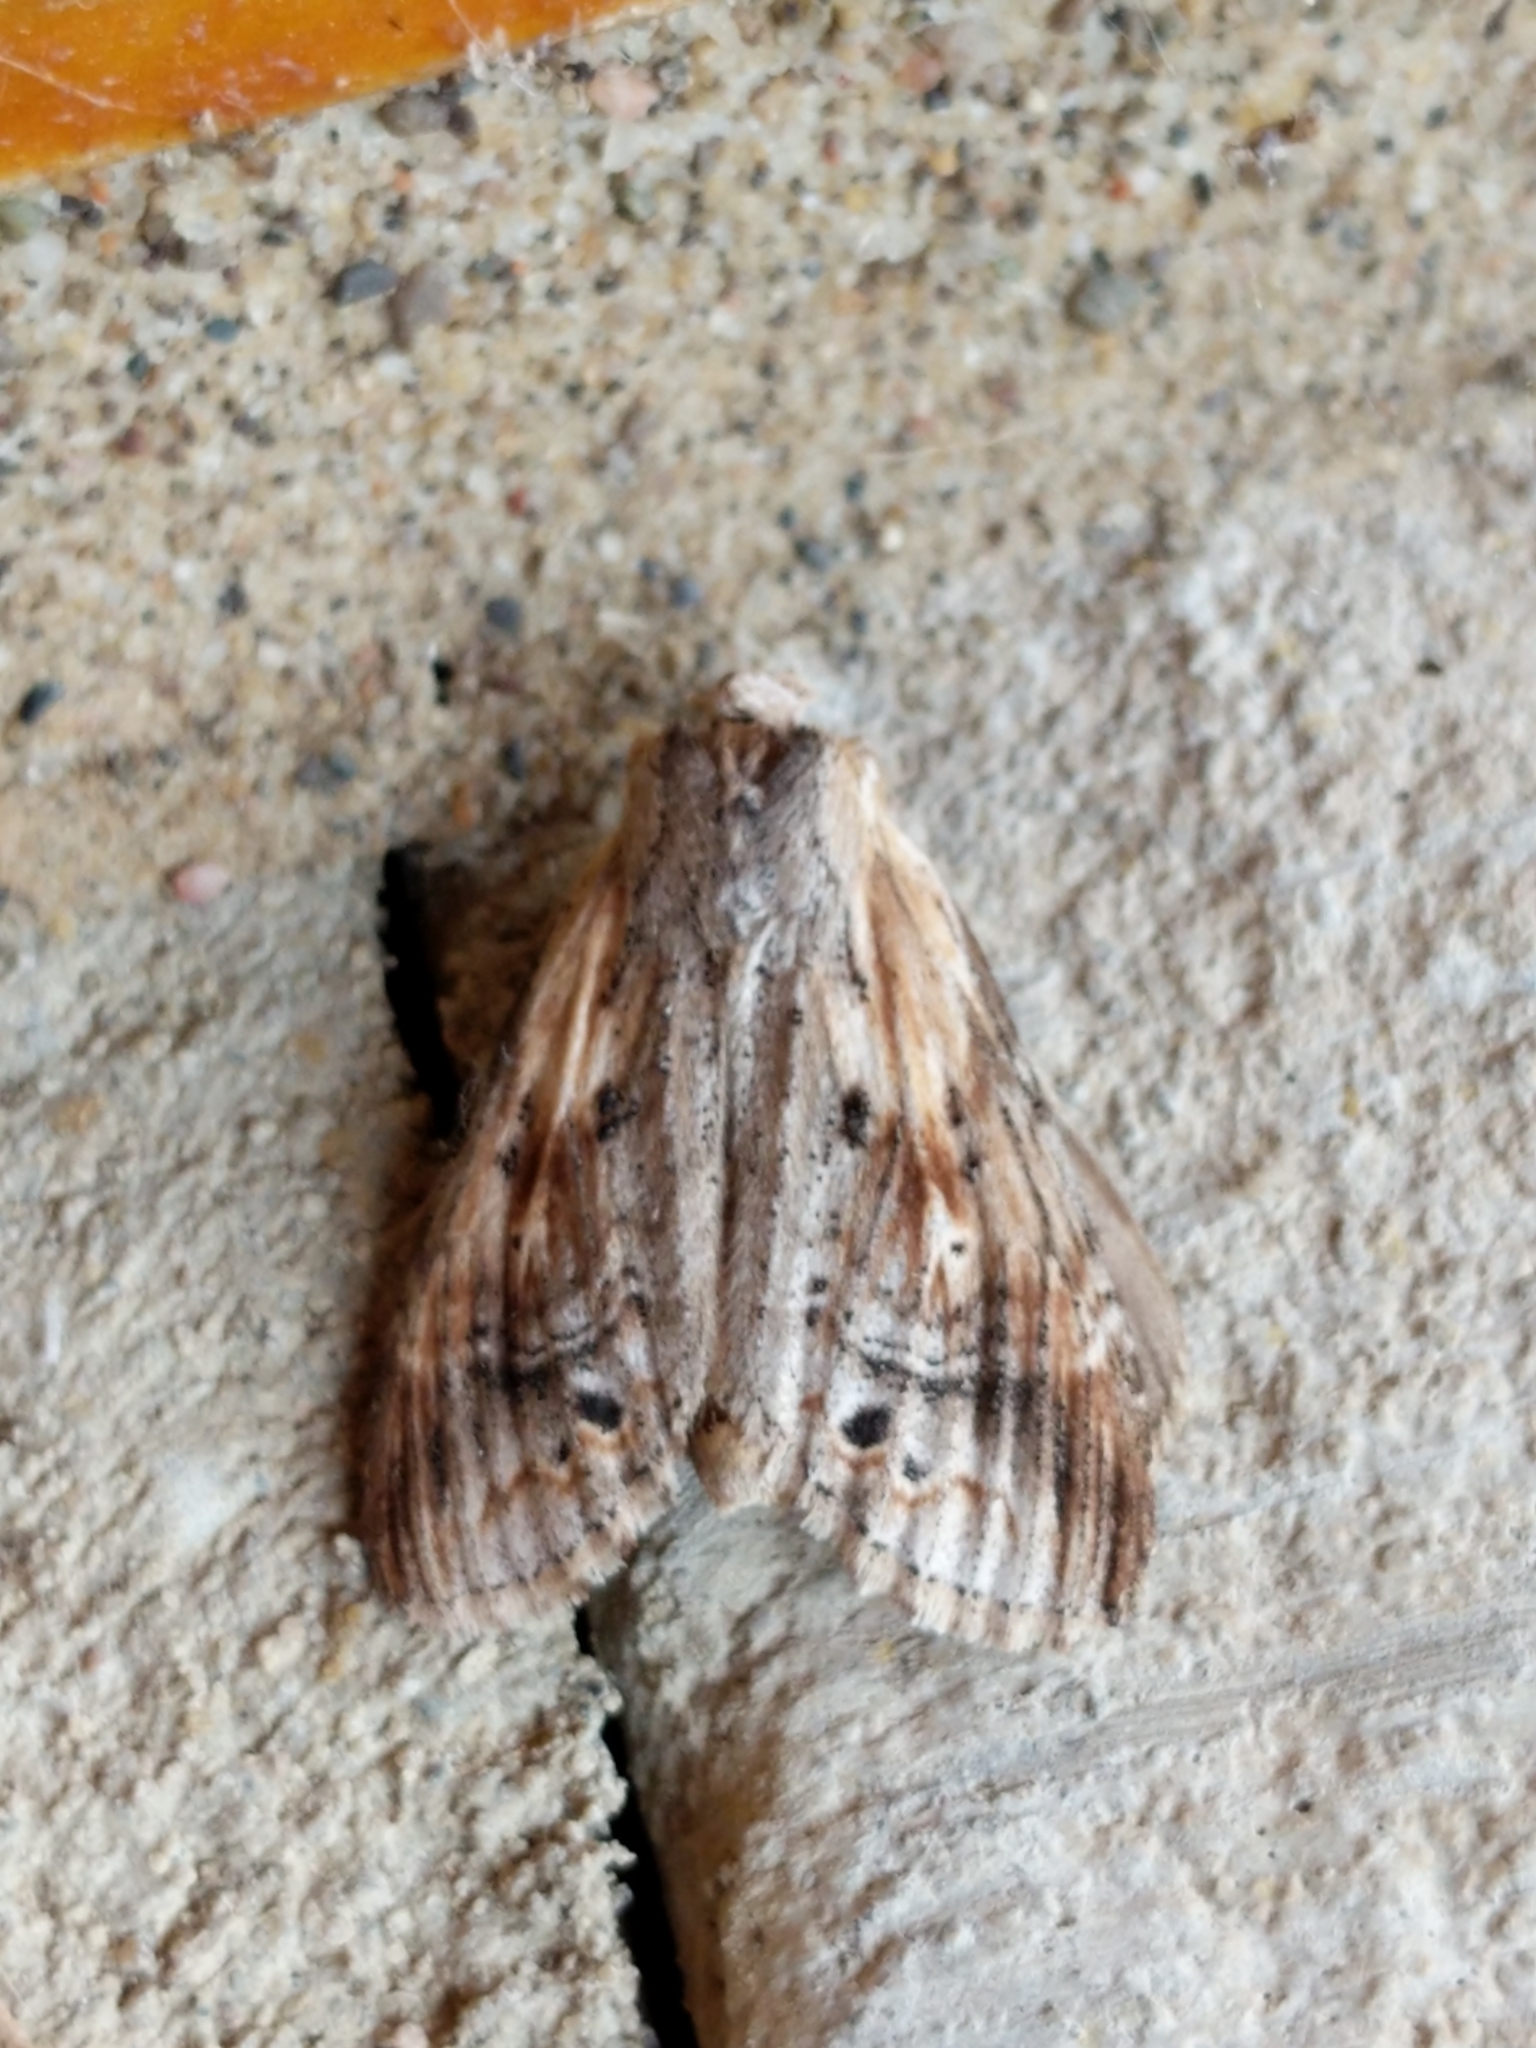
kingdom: Animalia
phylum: Arthropoda
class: Insecta
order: Lepidoptera
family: Notodontidae
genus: Dasylophia
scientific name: Dasylophia anguina
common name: Black-spotted prominent
